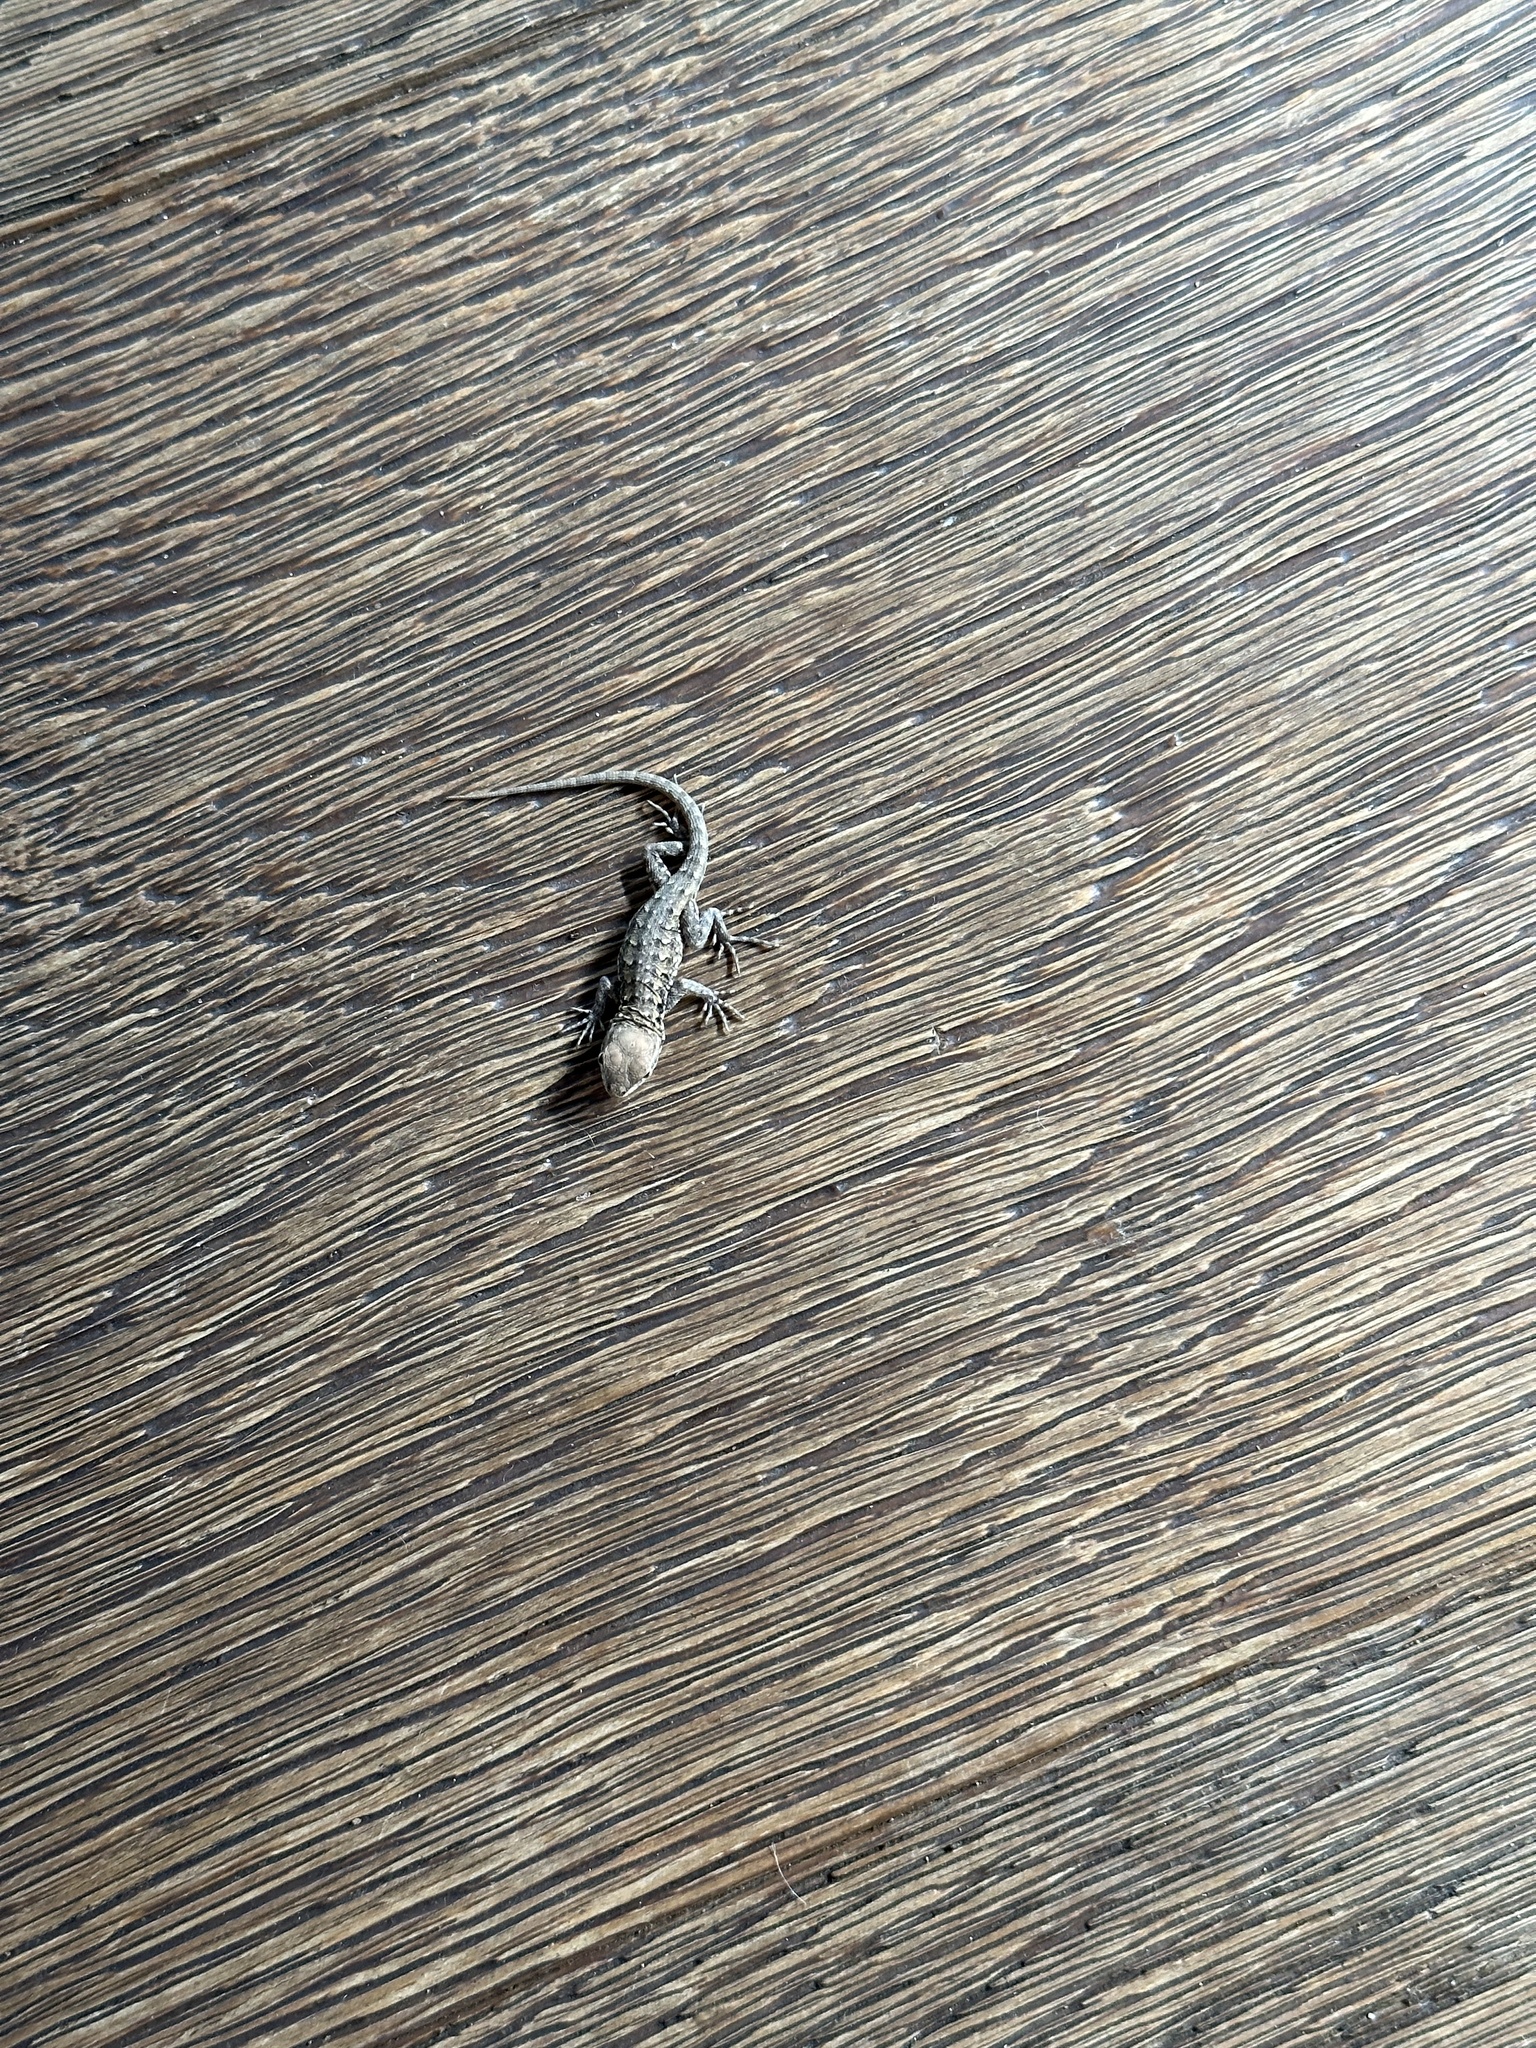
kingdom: Animalia
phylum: Chordata
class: Squamata
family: Phrynosomatidae
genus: Uta
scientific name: Uta stansburiana
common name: Side-blotched lizard
